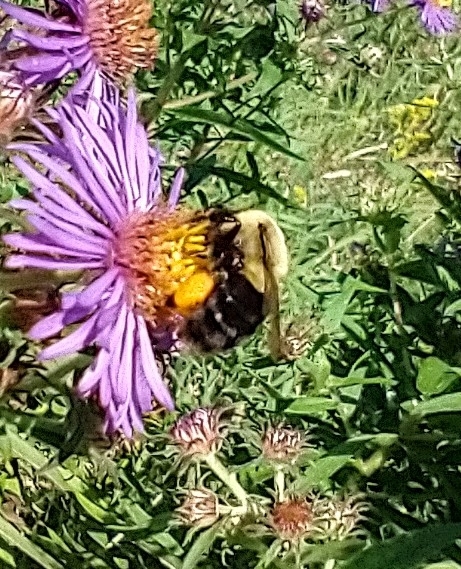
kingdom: Animalia
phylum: Arthropoda
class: Insecta
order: Hymenoptera
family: Apidae
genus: Bombus
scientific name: Bombus impatiens
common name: Common eastern bumble bee
